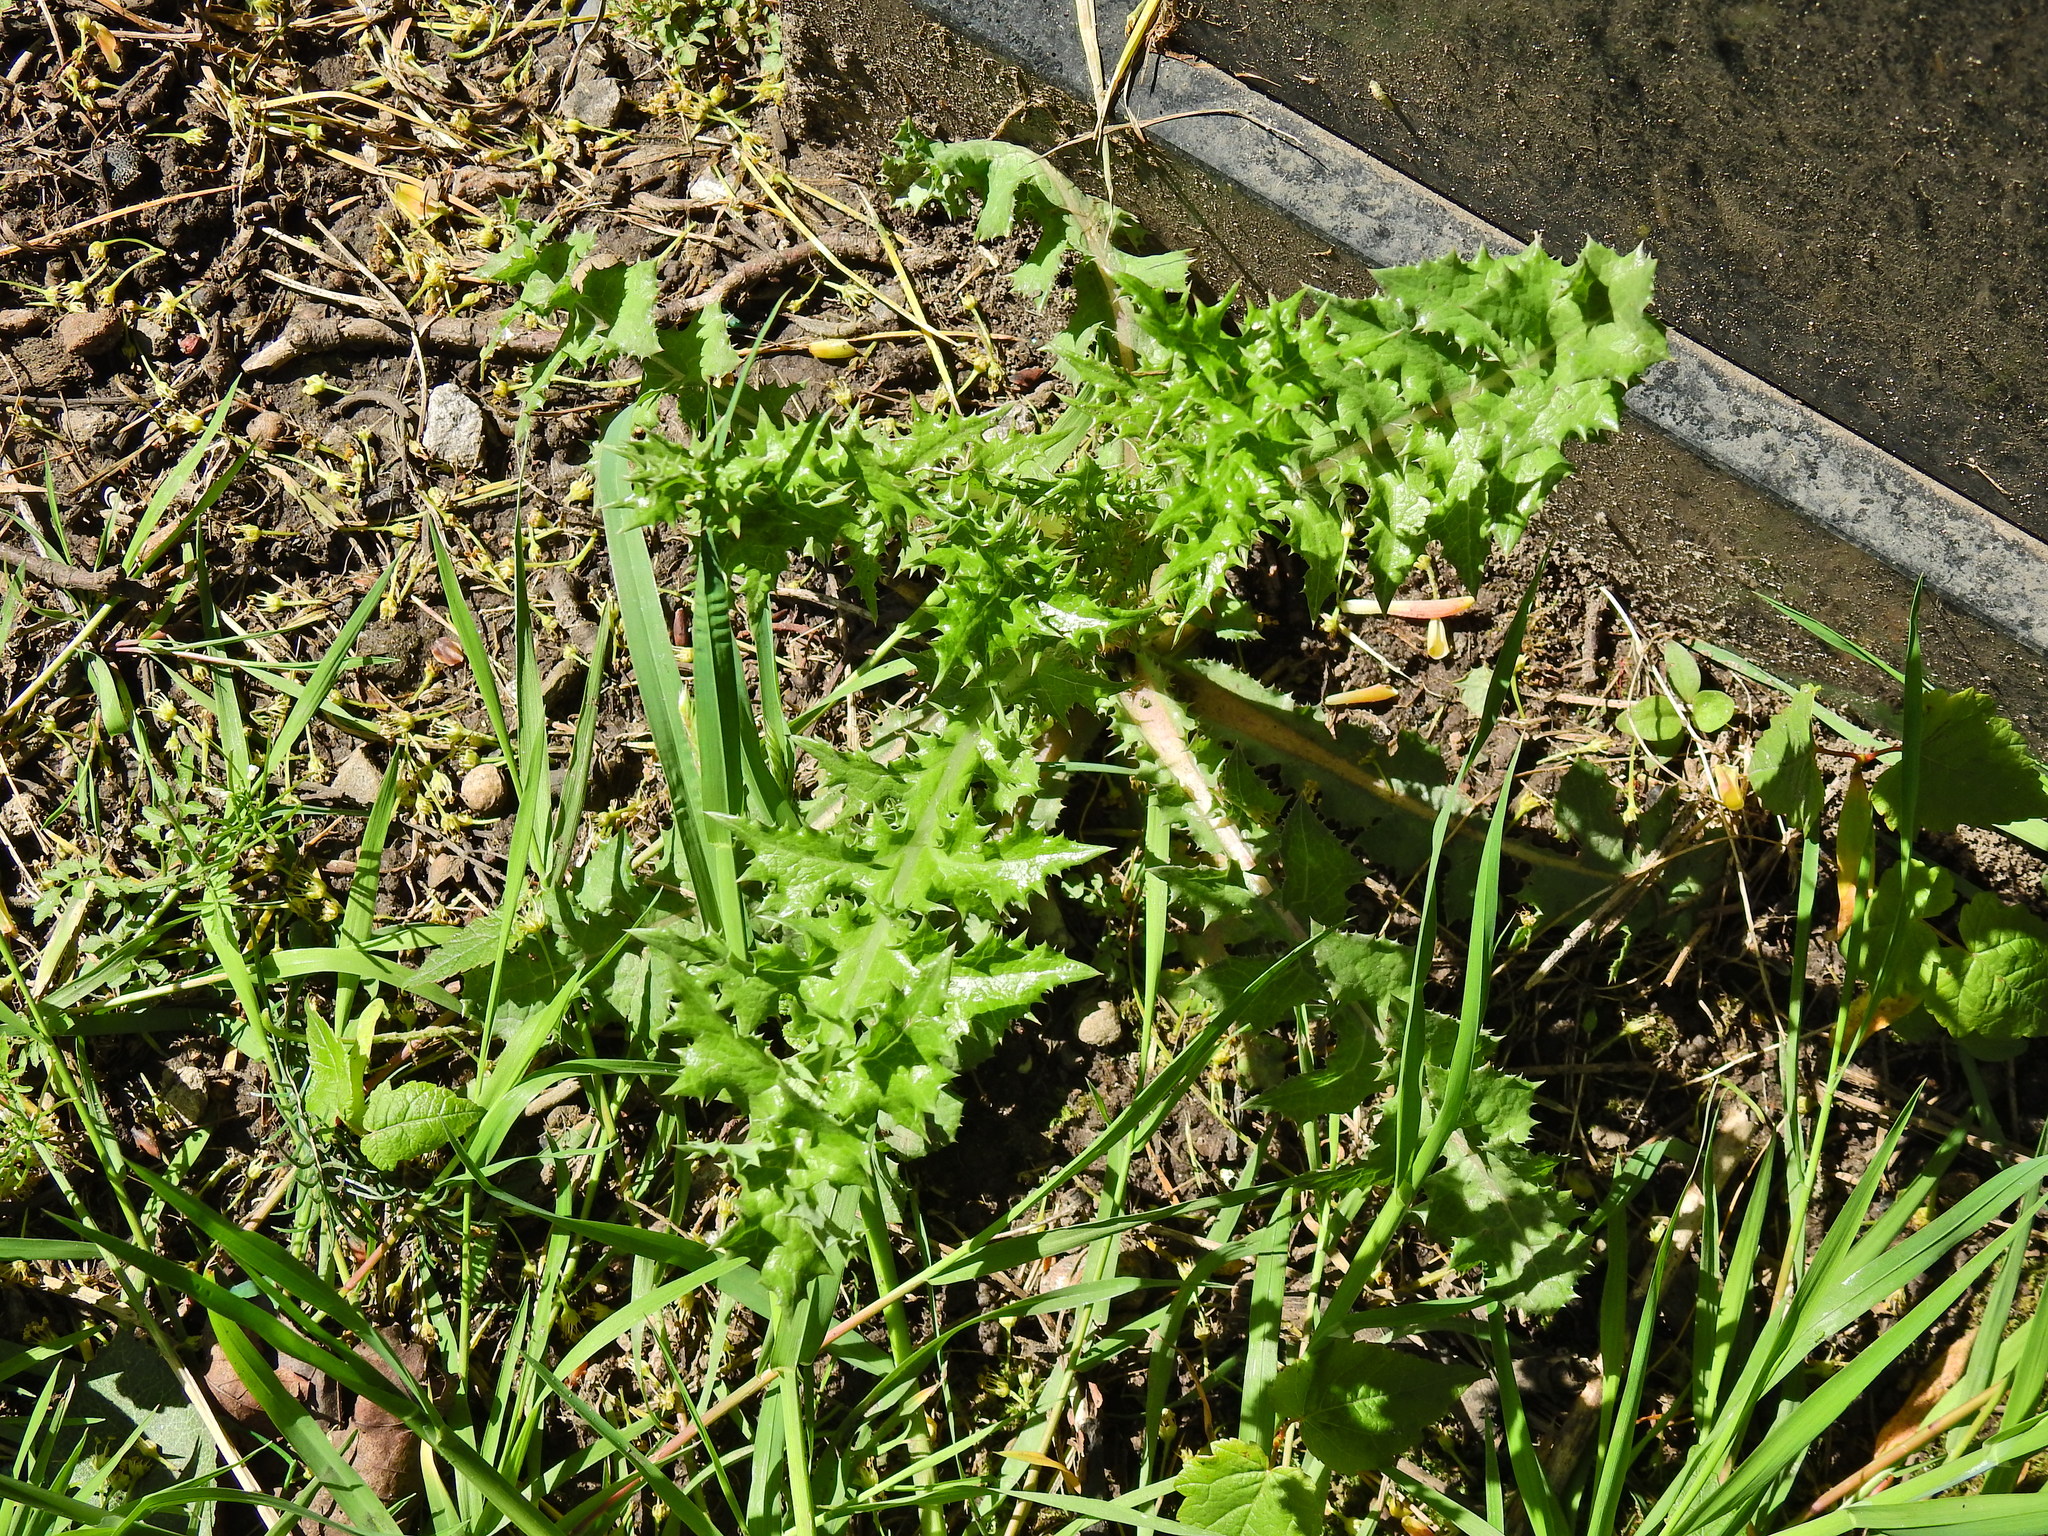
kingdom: Plantae
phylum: Tracheophyta
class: Magnoliopsida
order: Asterales
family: Asteraceae
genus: Sonchus
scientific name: Sonchus asper
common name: Prickly sow-thistle
